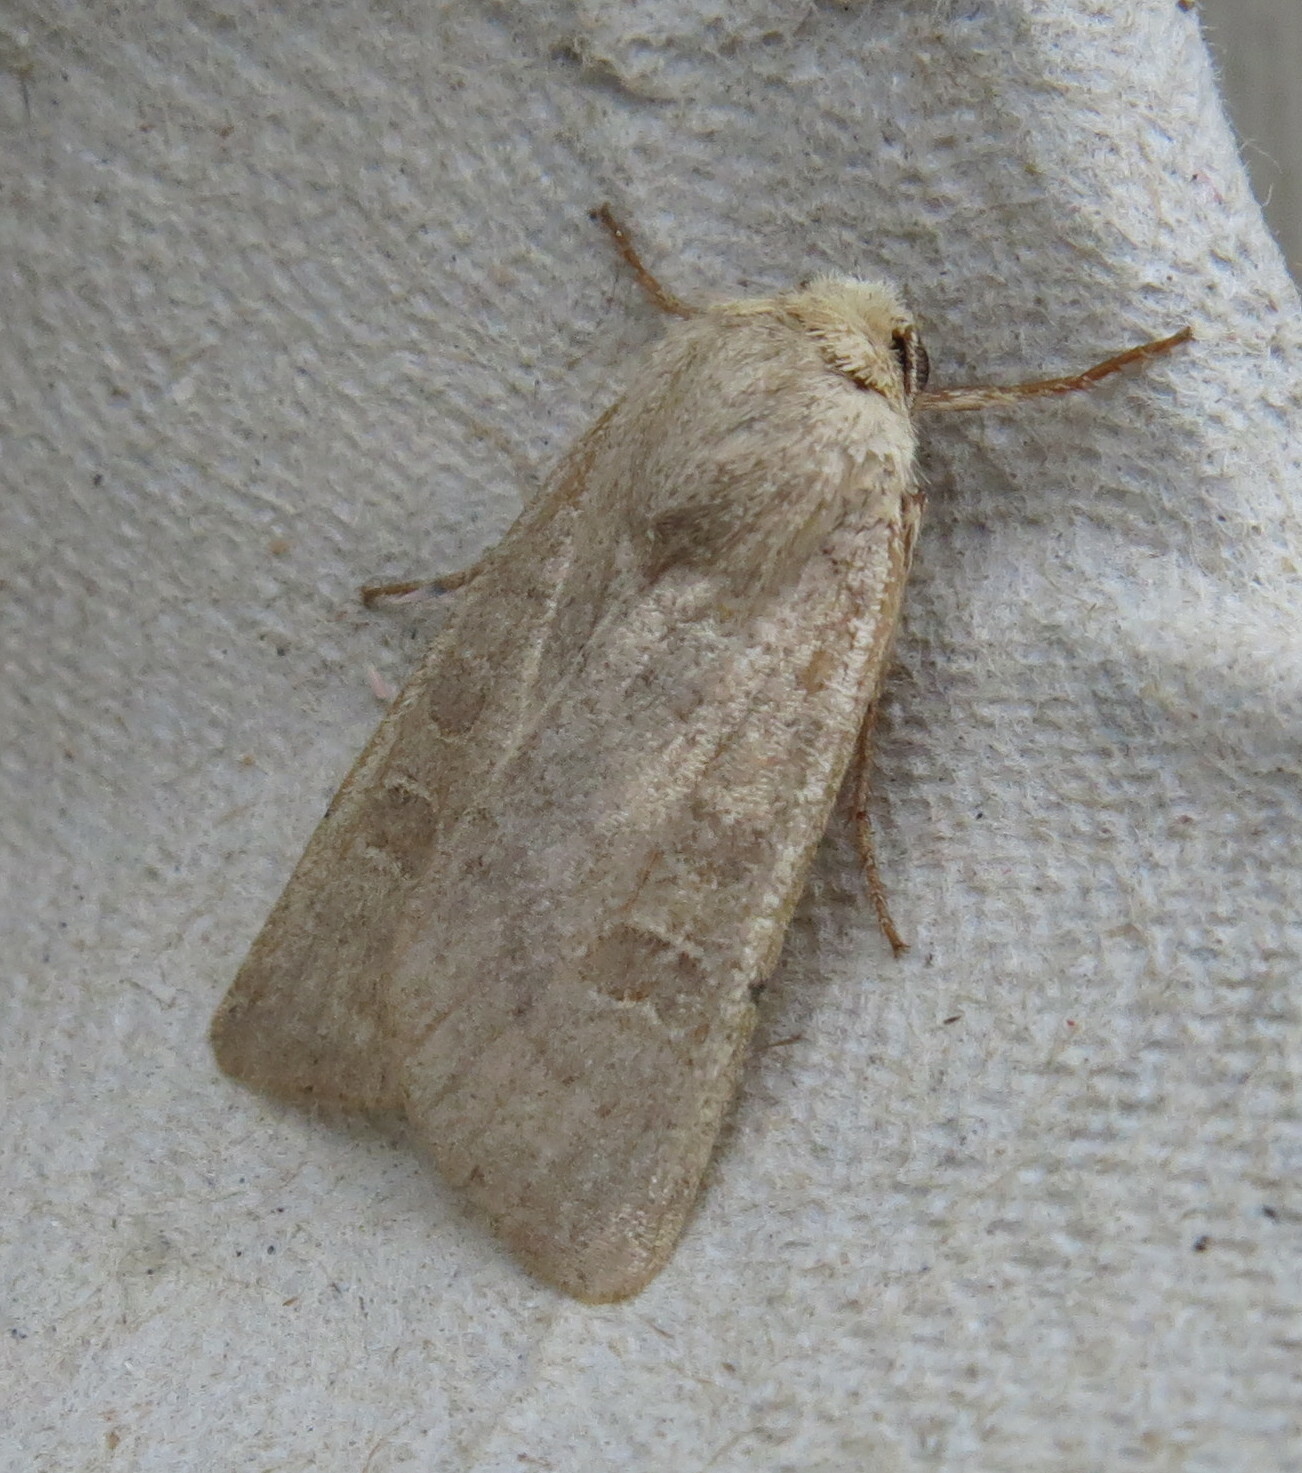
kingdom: Animalia
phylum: Arthropoda
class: Insecta
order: Lepidoptera
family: Noctuidae
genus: Hoplodrina
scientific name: Hoplodrina ambigua
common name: Vine's rustic
